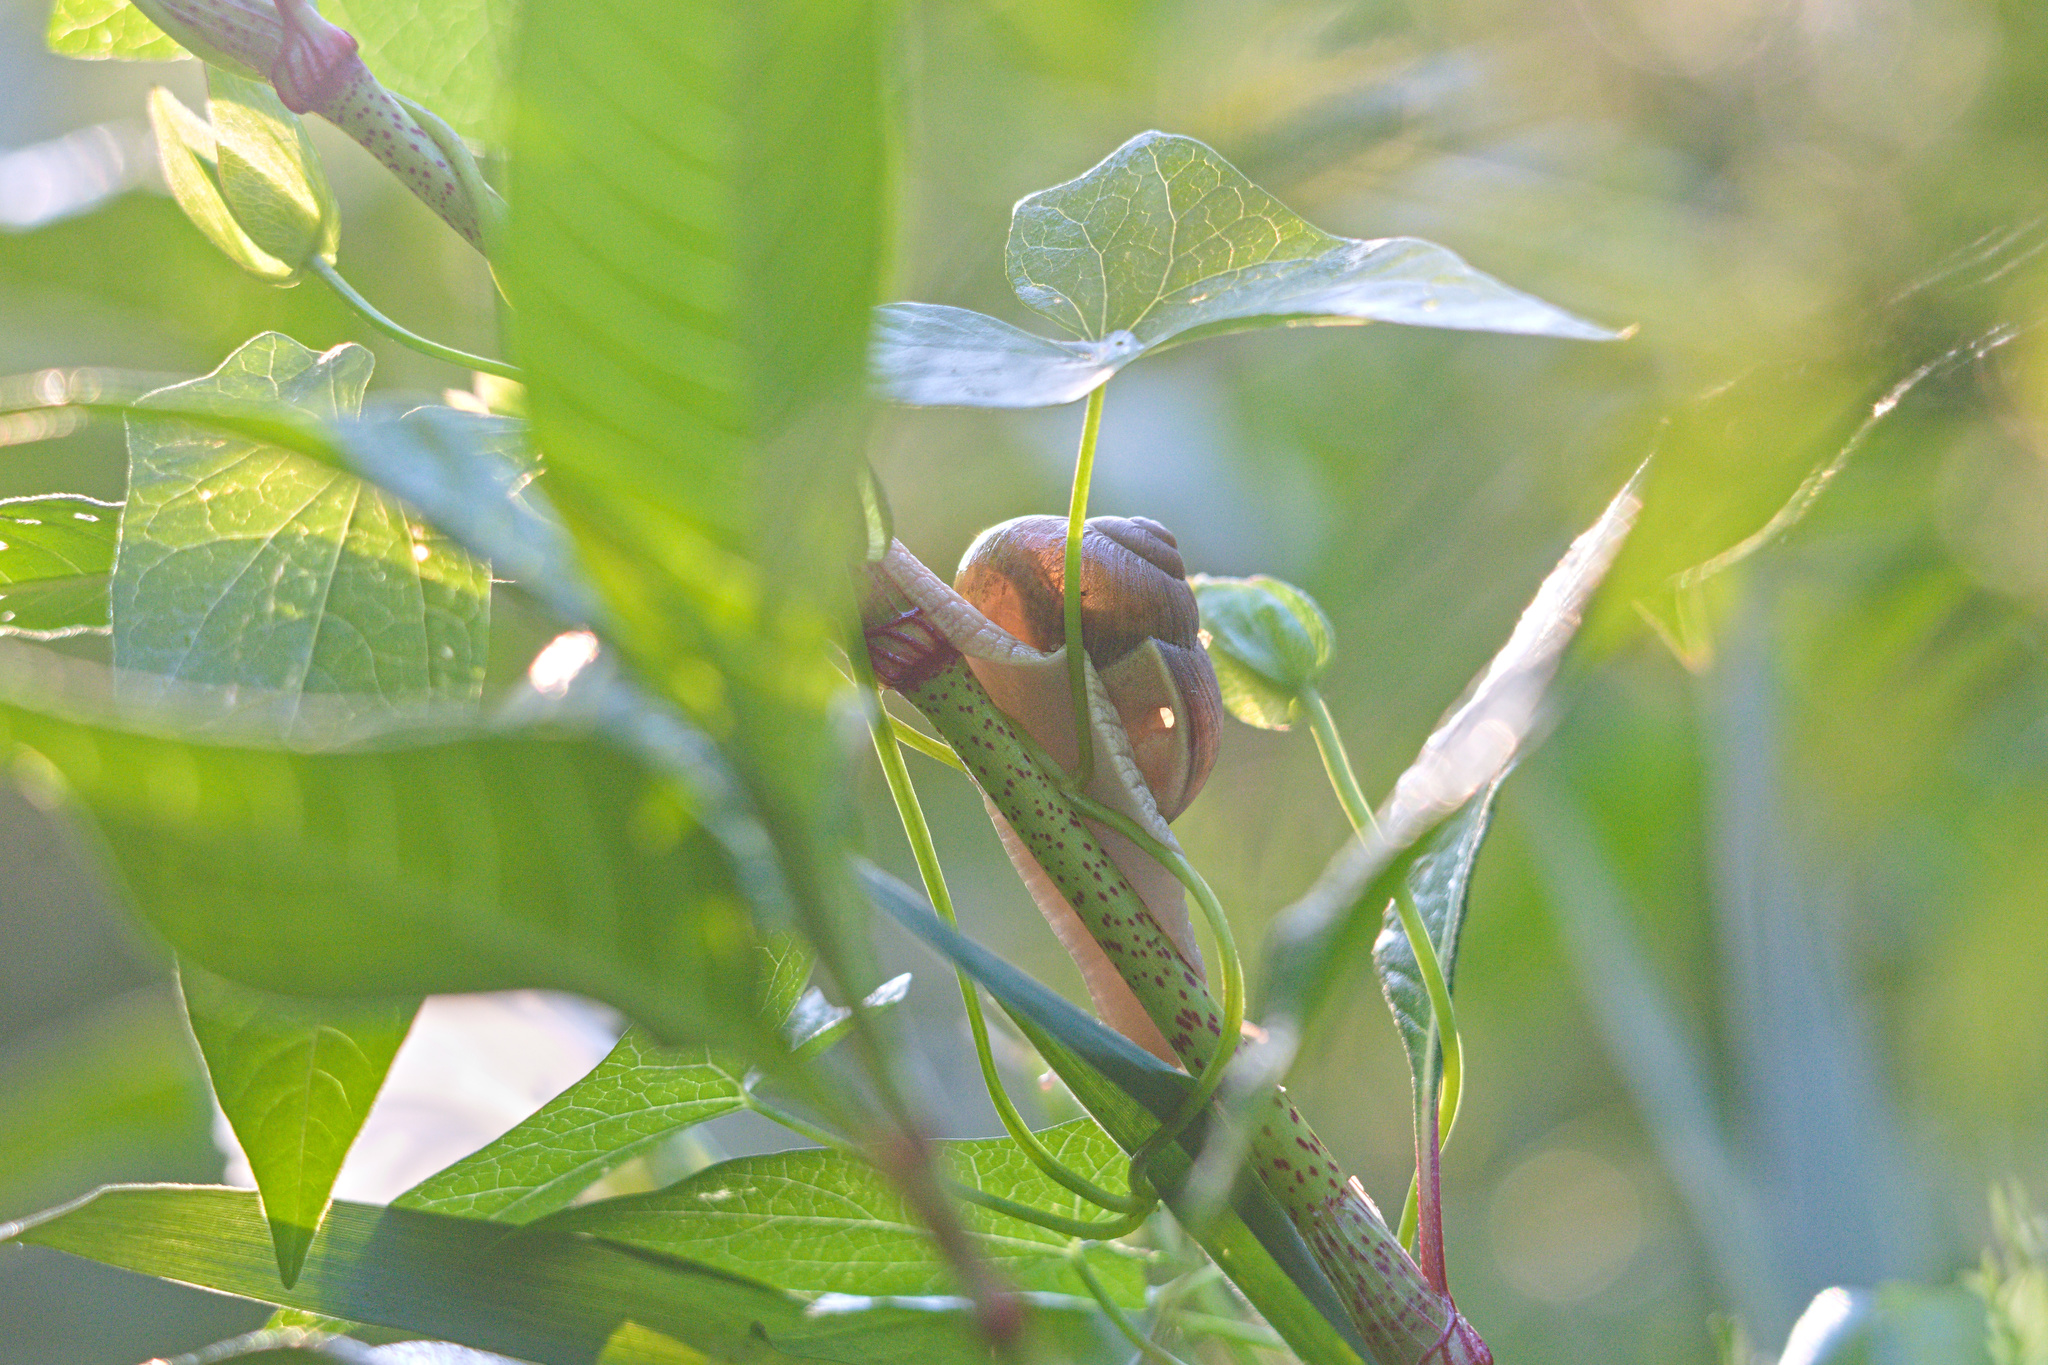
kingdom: Animalia
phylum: Mollusca
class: Gastropoda
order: Stylommatophora
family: Helicidae
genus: Helix
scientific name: Helix pomatia
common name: Roman snail
